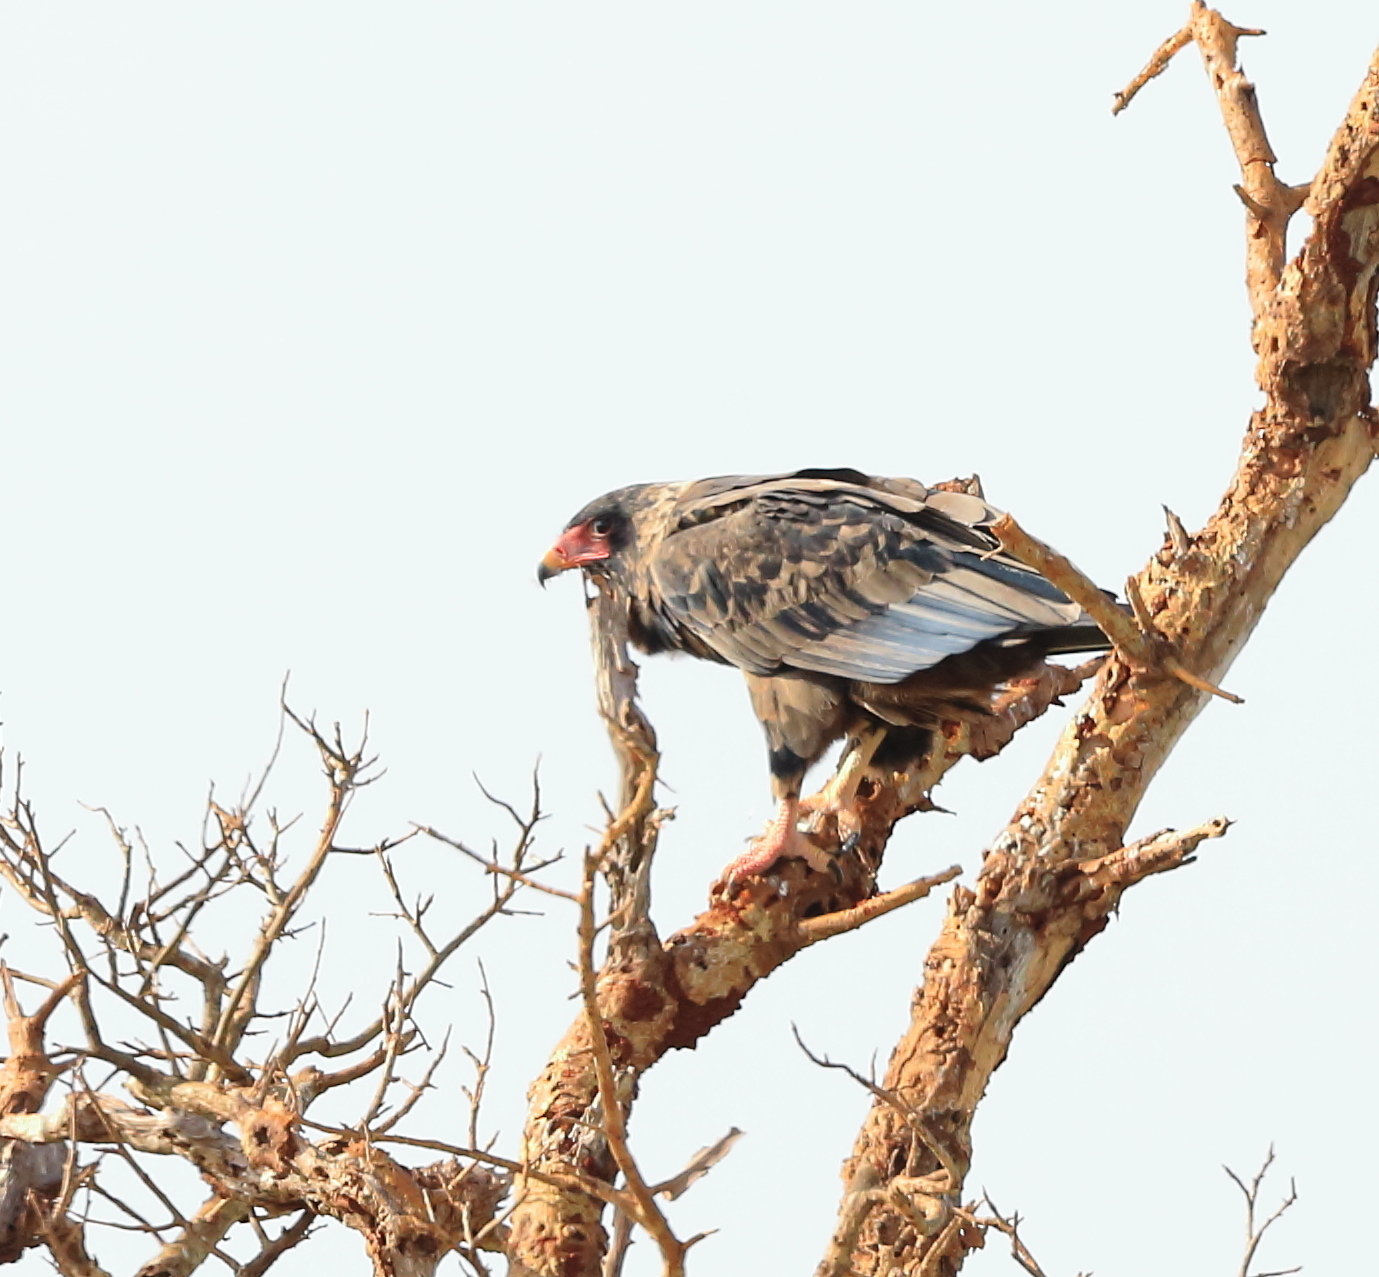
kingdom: Animalia
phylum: Chordata
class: Aves
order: Accipitriformes
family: Accipitridae
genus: Terathopius
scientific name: Terathopius ecaudatus
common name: Bateleur
